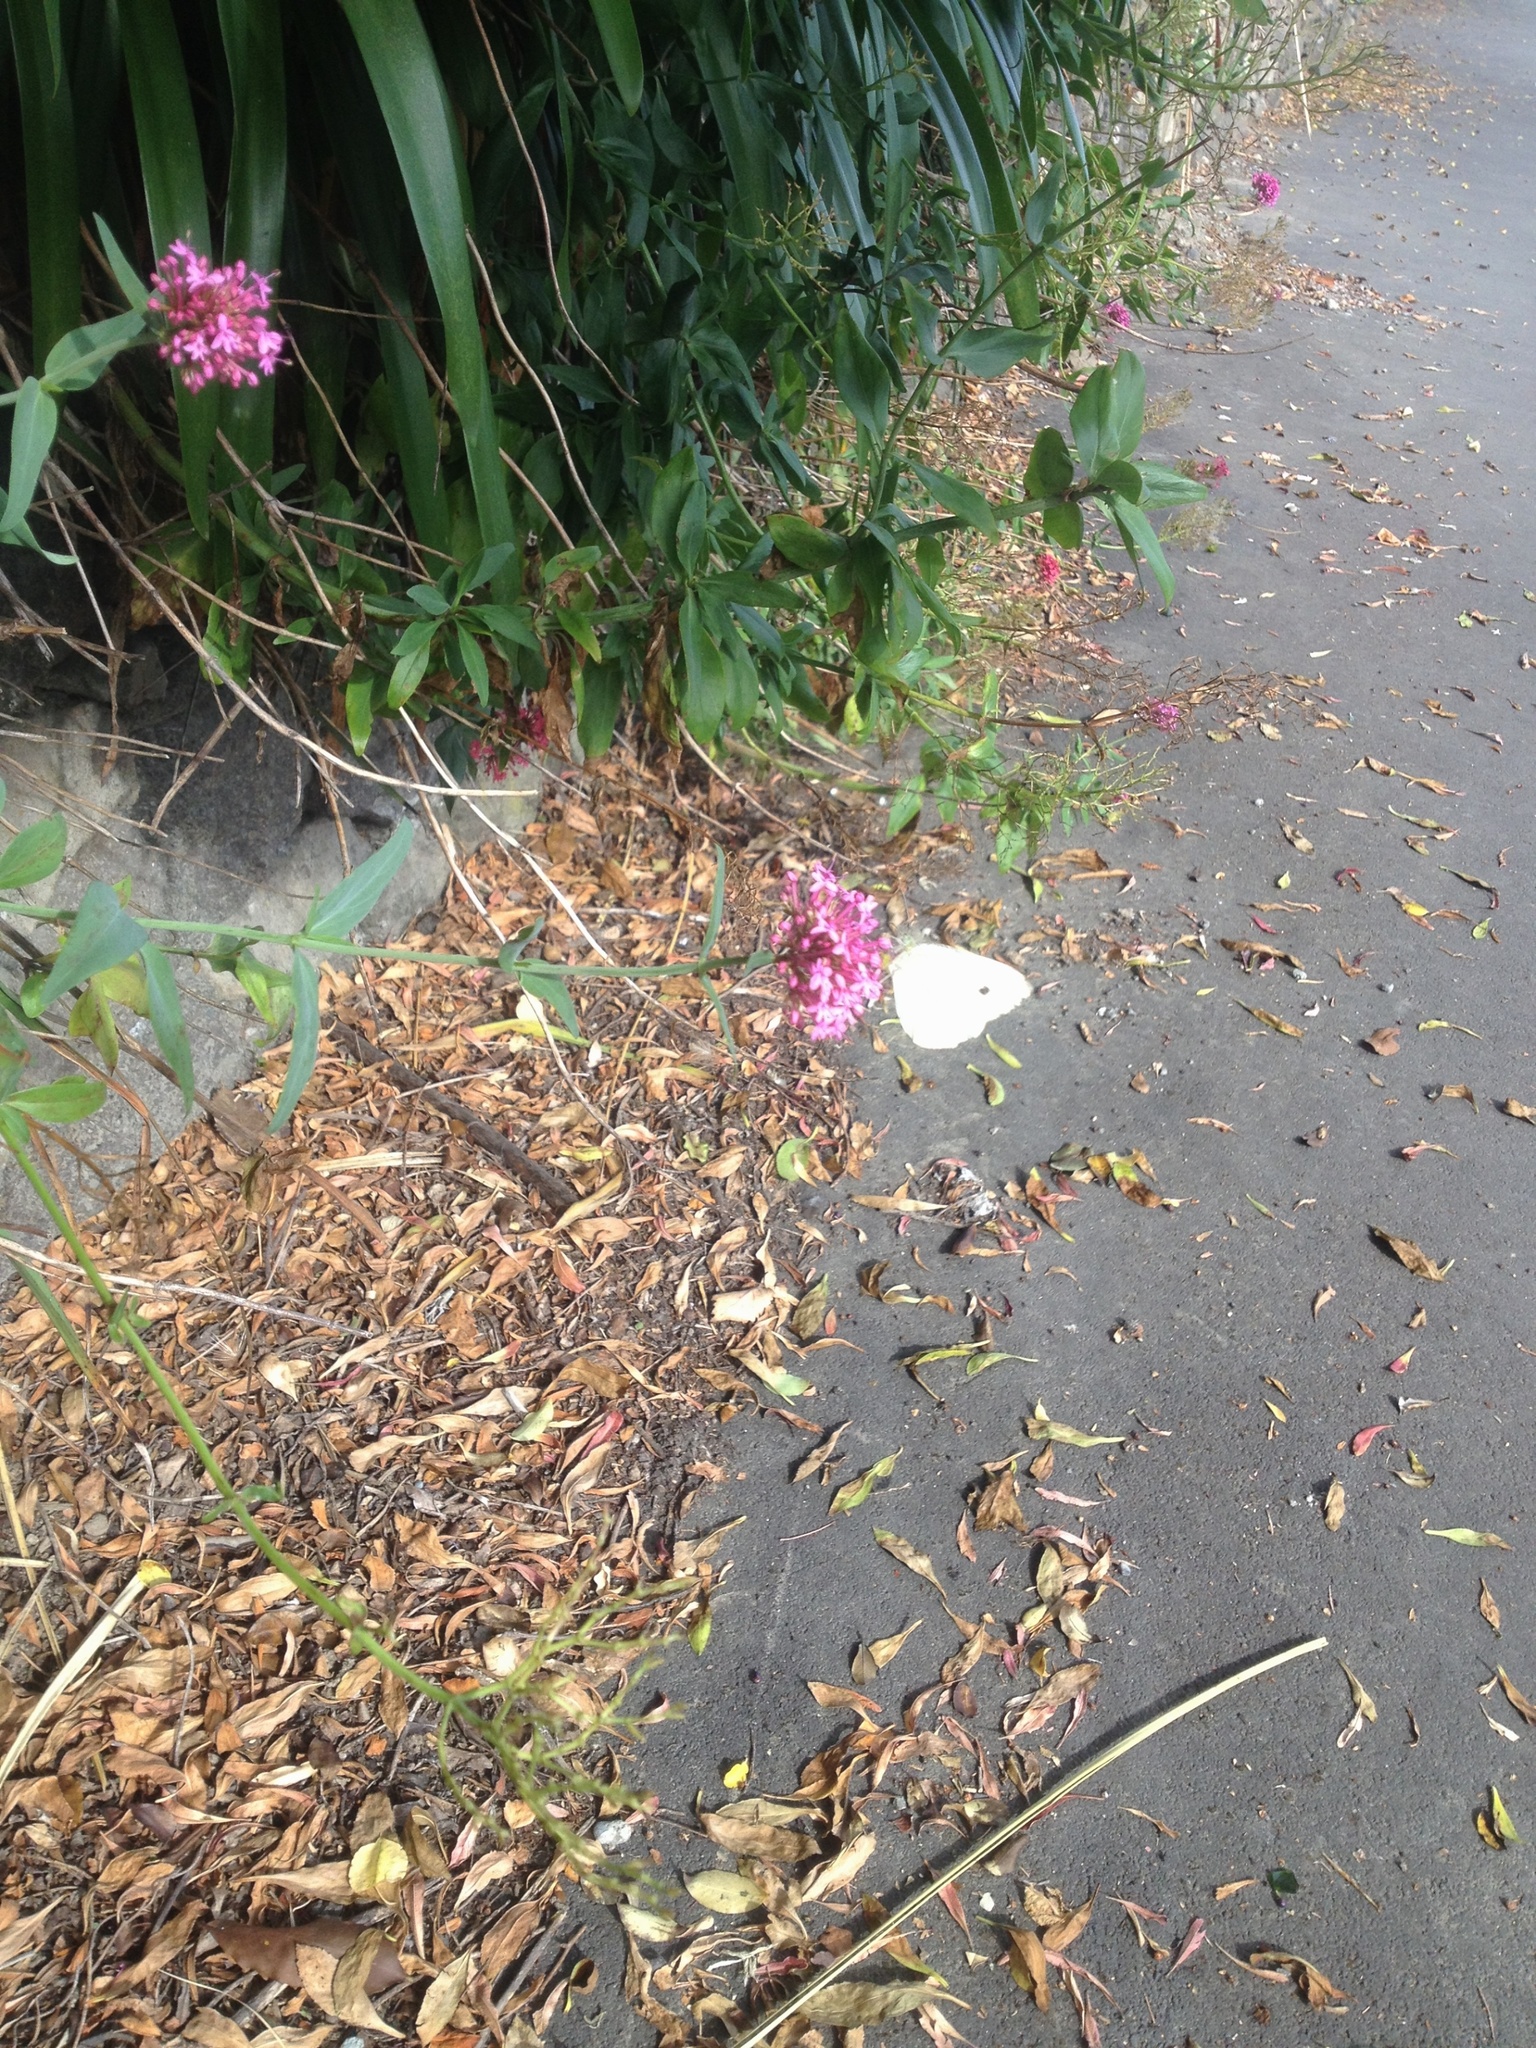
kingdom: Animalia
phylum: Arthropoda
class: Insecta
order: Lepidoptera
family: Pieridae
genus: Pieris
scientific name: Pieris rapae
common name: Small white
